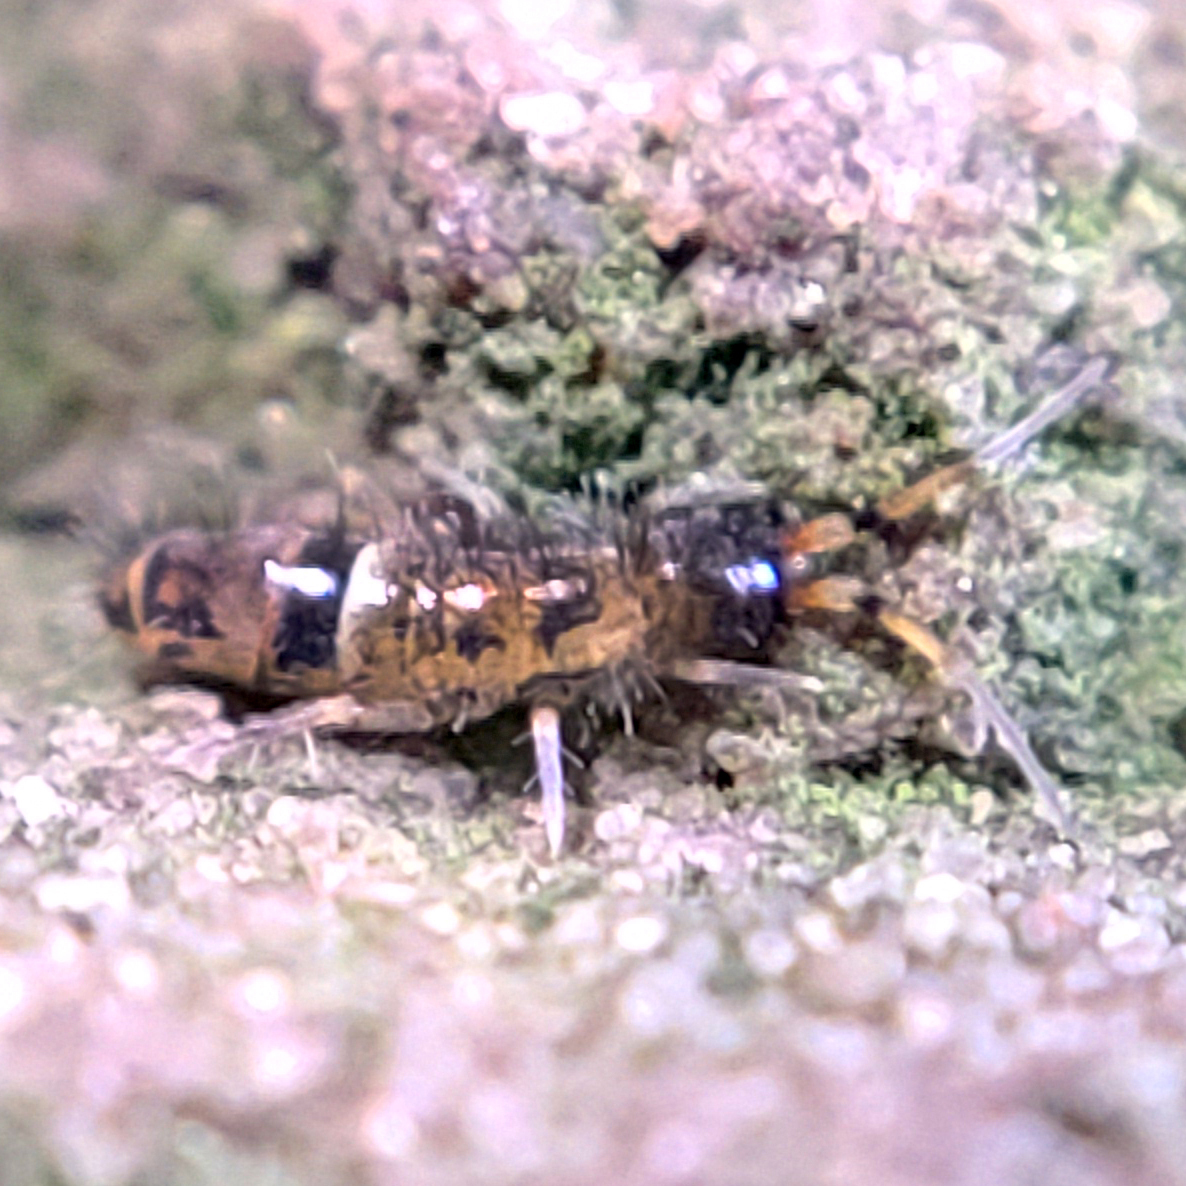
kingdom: Animalia
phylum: Arthropoda
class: Collembola
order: Entomobryomorpha
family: Orchesellidae
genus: Orchesella
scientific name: Orchesella cincta
